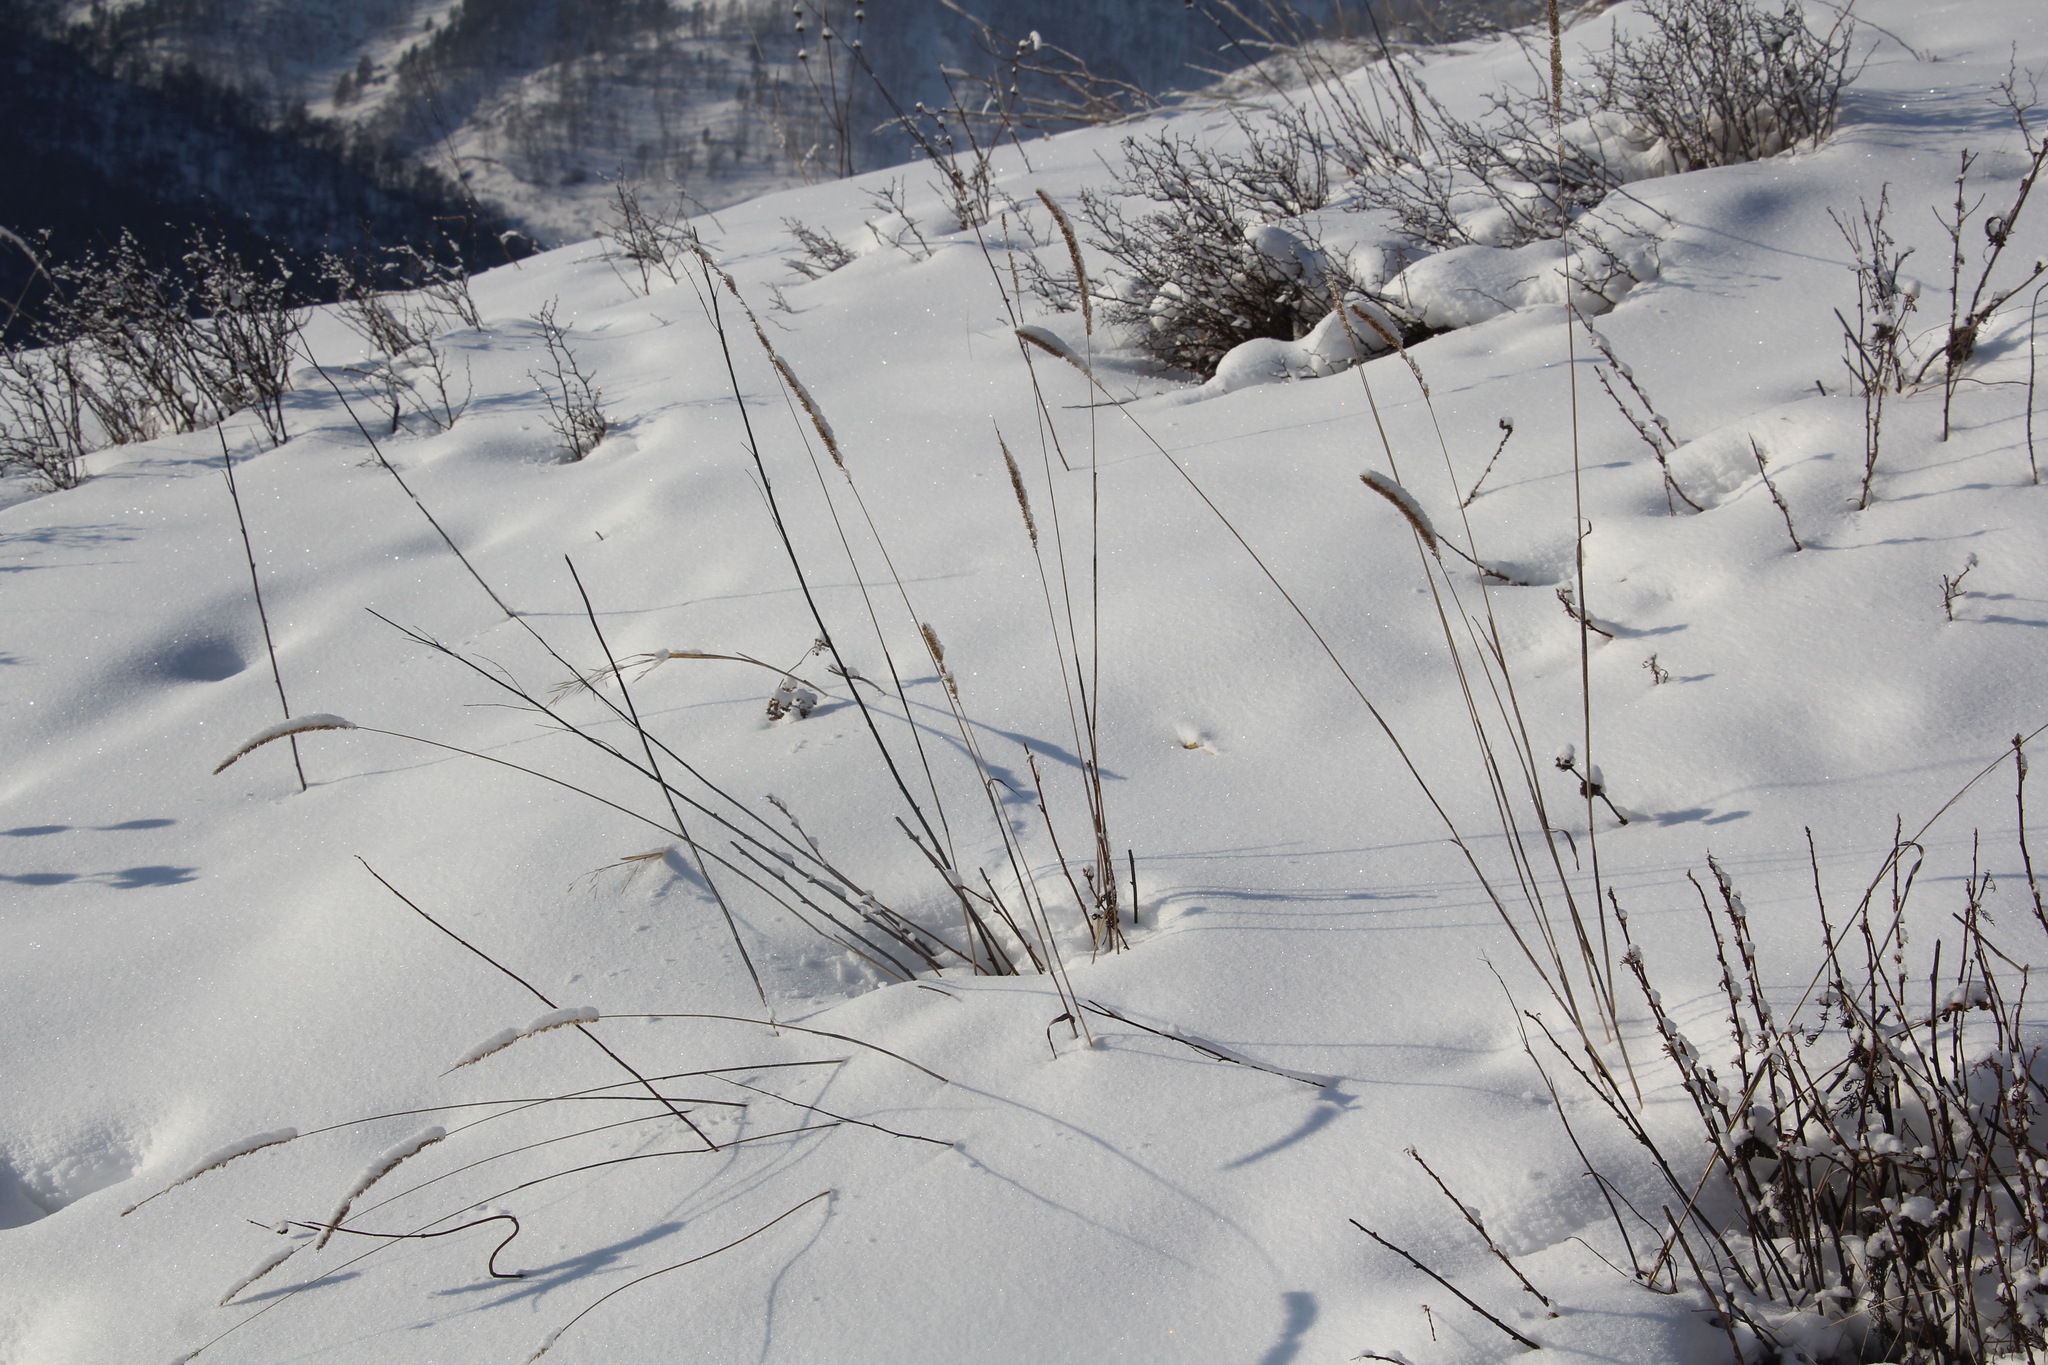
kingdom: Plantae
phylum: Tracheophyta
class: Liliopsida
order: Poales
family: Poaceae
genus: Phleum
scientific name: Phleum phleoides
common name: Purple-stem cat's-tail
